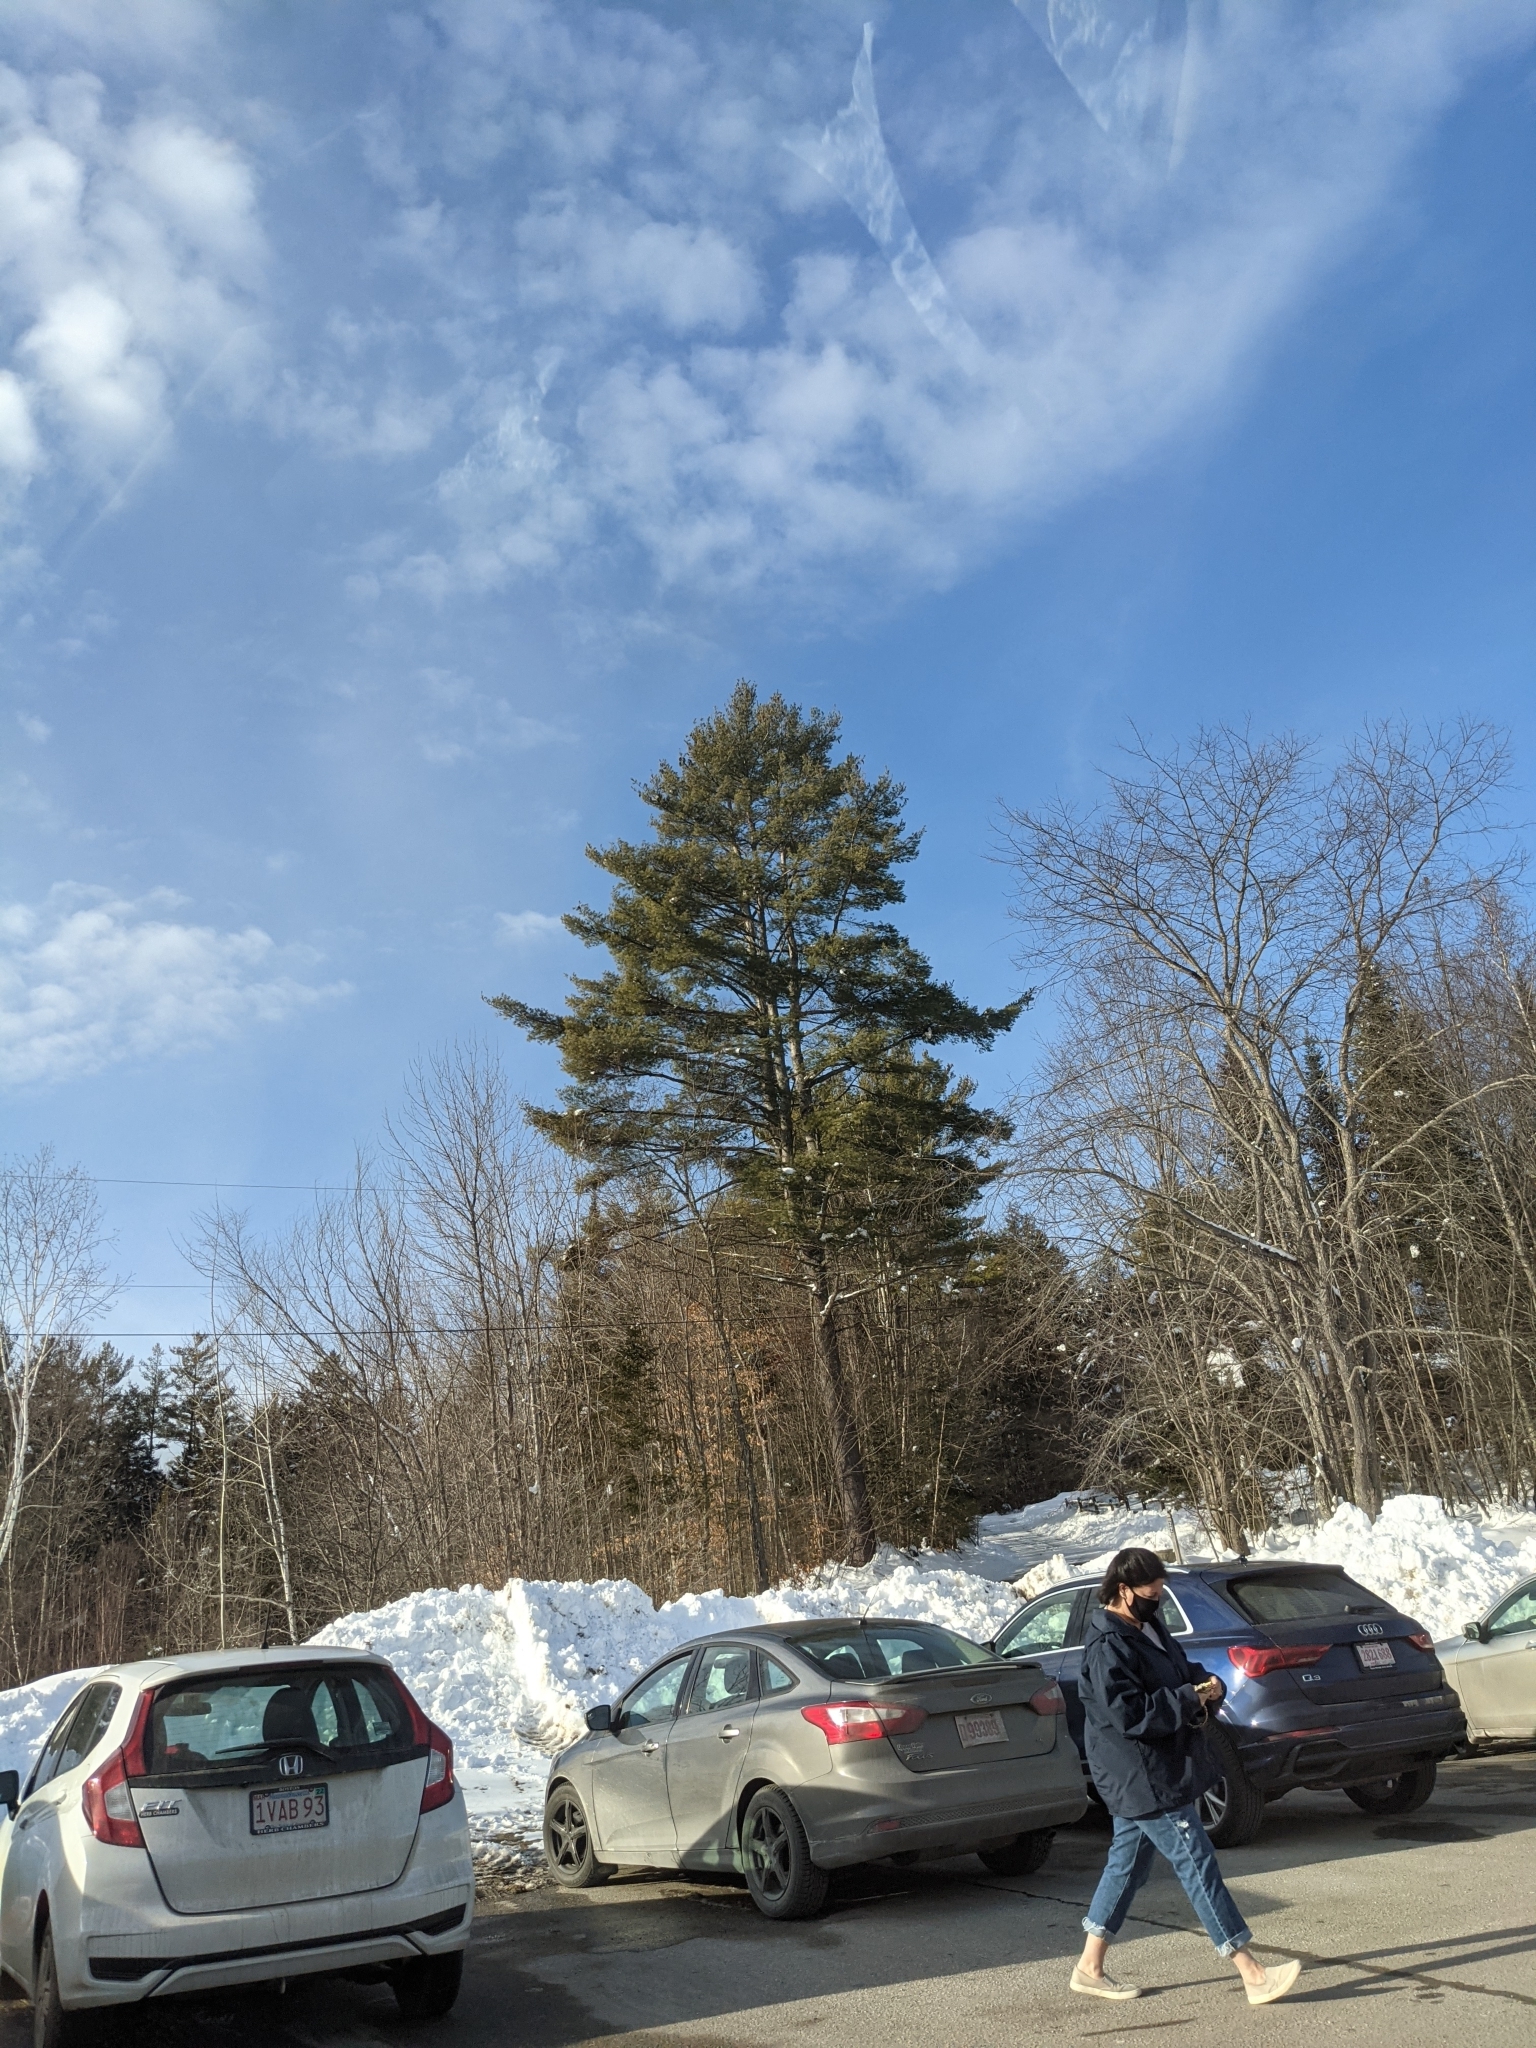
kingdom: Plantae
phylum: Tracheophyta
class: Pinopsida
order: Pinales
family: Pinaceae
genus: Pinus
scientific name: Pinus strobus
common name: Weymouth pine
